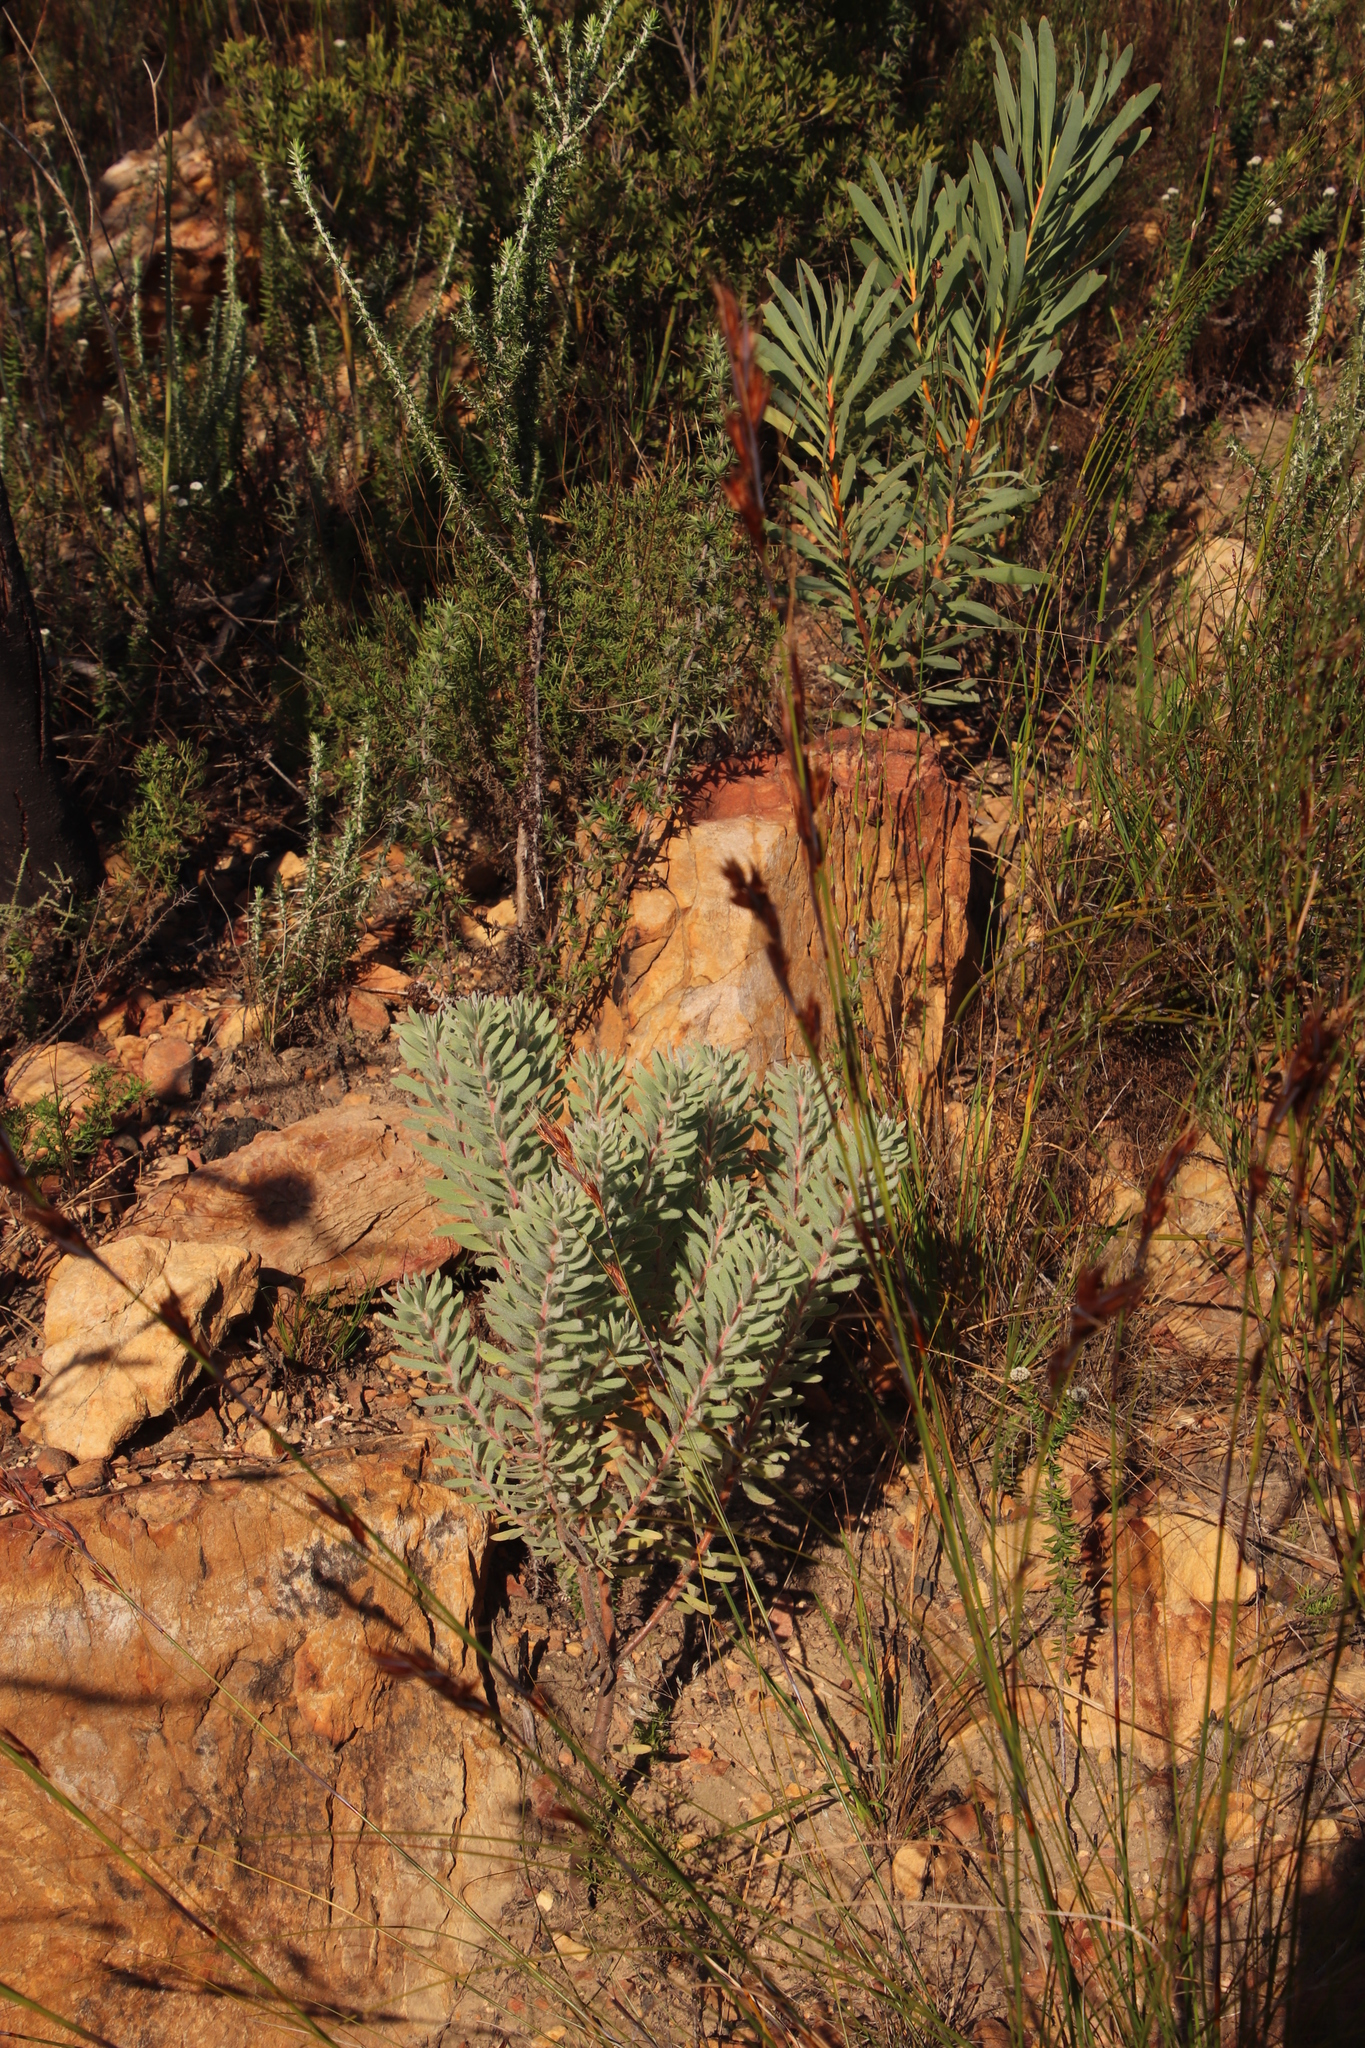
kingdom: Plantae
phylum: Tracheophyta
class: Magnoliopsida
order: Proteales
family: Proteaceae
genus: Leucadendron
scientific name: Leucadendron rubrum
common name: Spinning top
